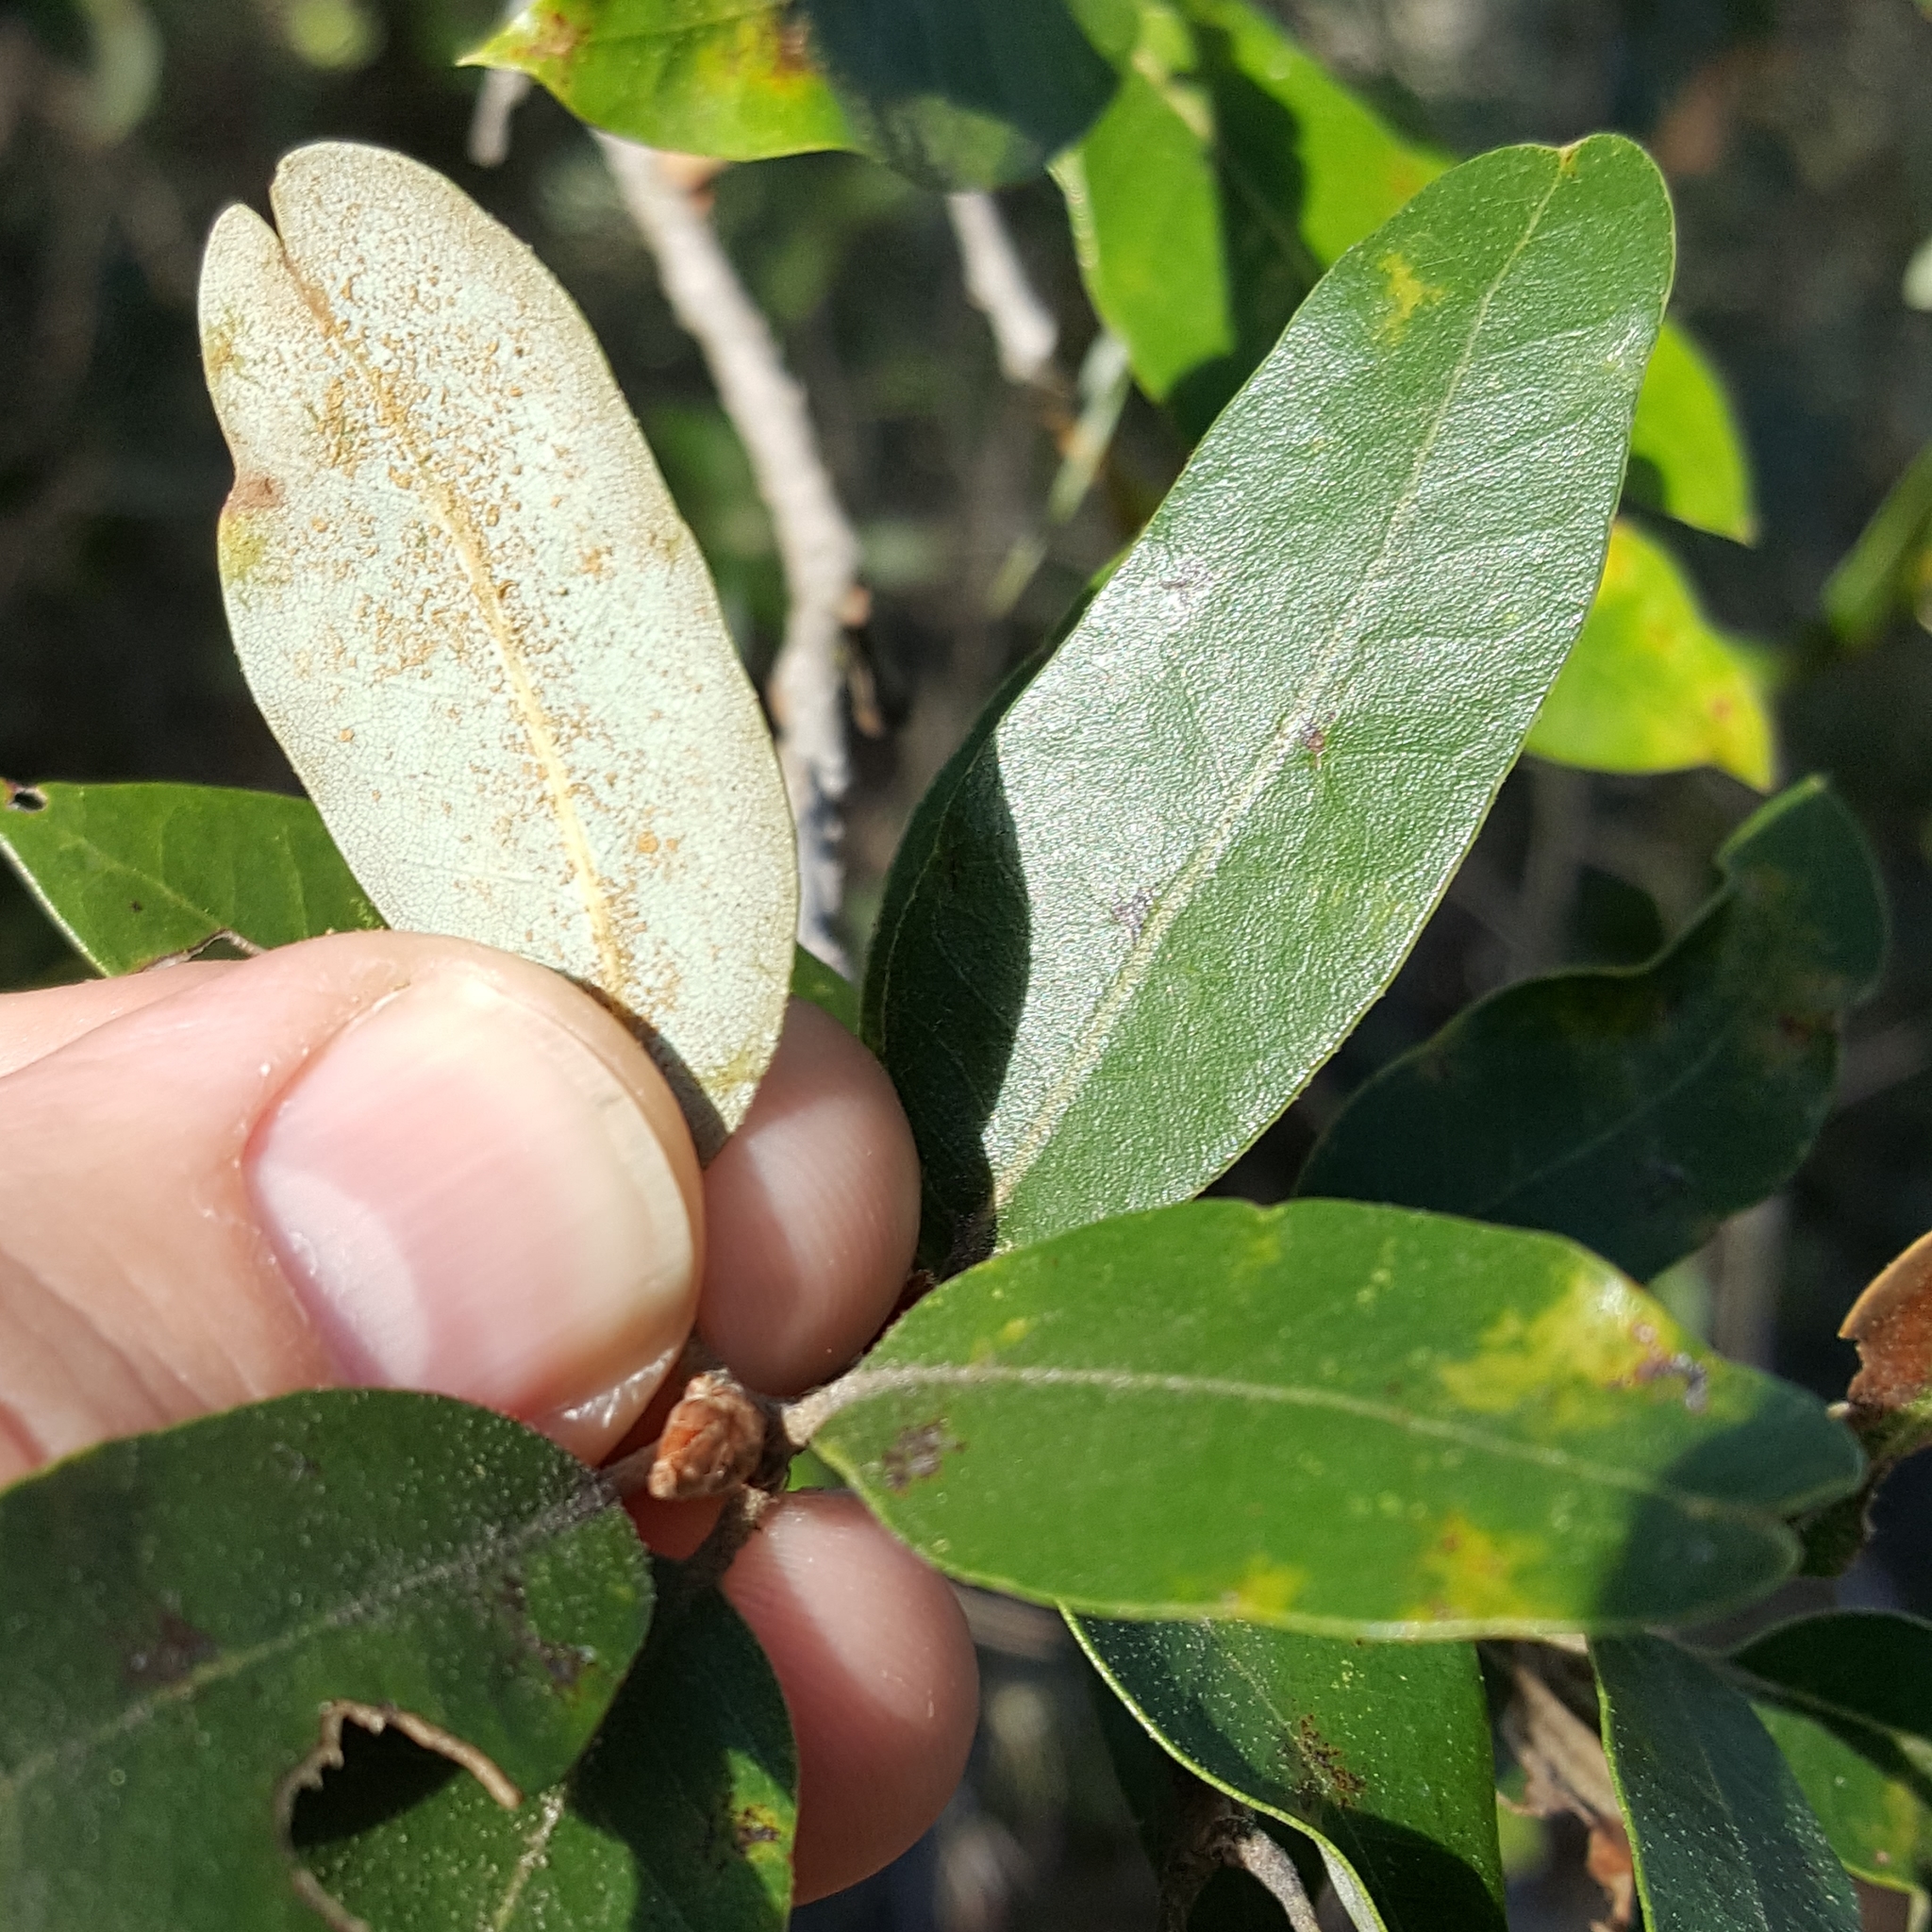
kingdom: Plantae
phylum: Tracheophyta
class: Magnoliopsida
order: Fagales
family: Fagaceae
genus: Quercus
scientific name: Quercus chrysolepis
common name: Canyon live oak
